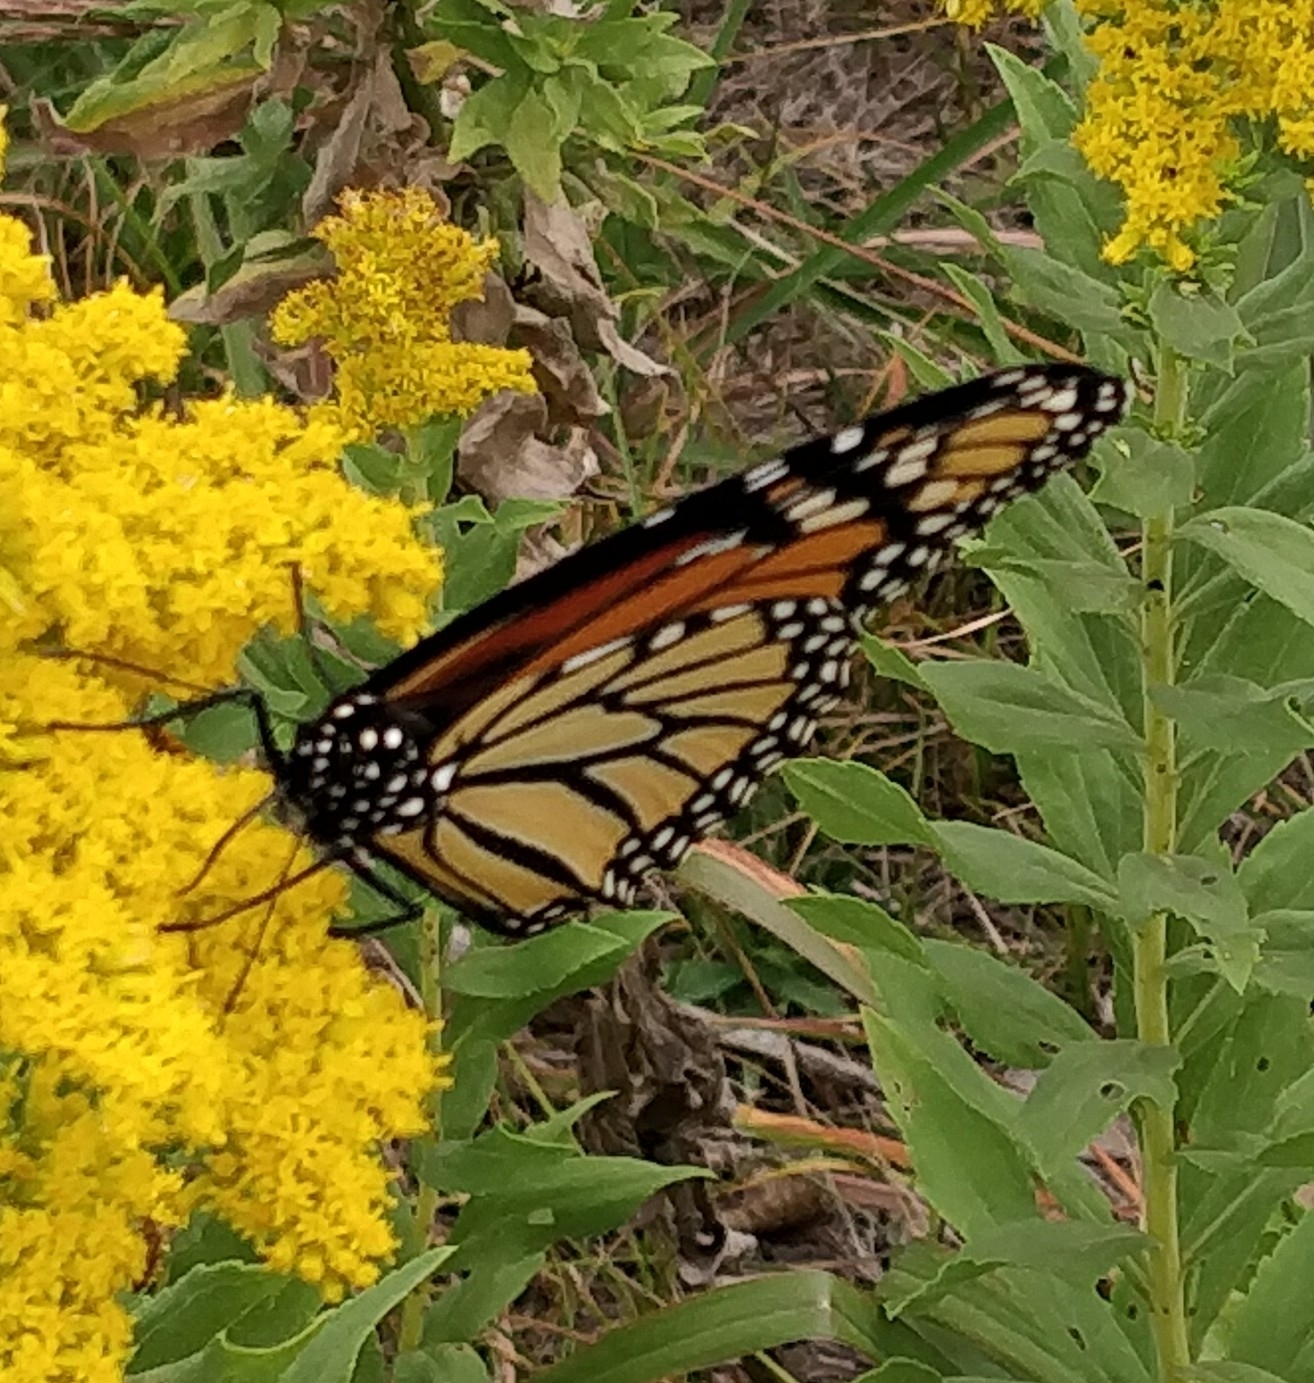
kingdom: Animalia
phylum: Arthropoda
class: Insecta
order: Lepidoptera
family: Nymphalidae
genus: Danaus
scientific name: Danaus plexippus
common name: Monarch
